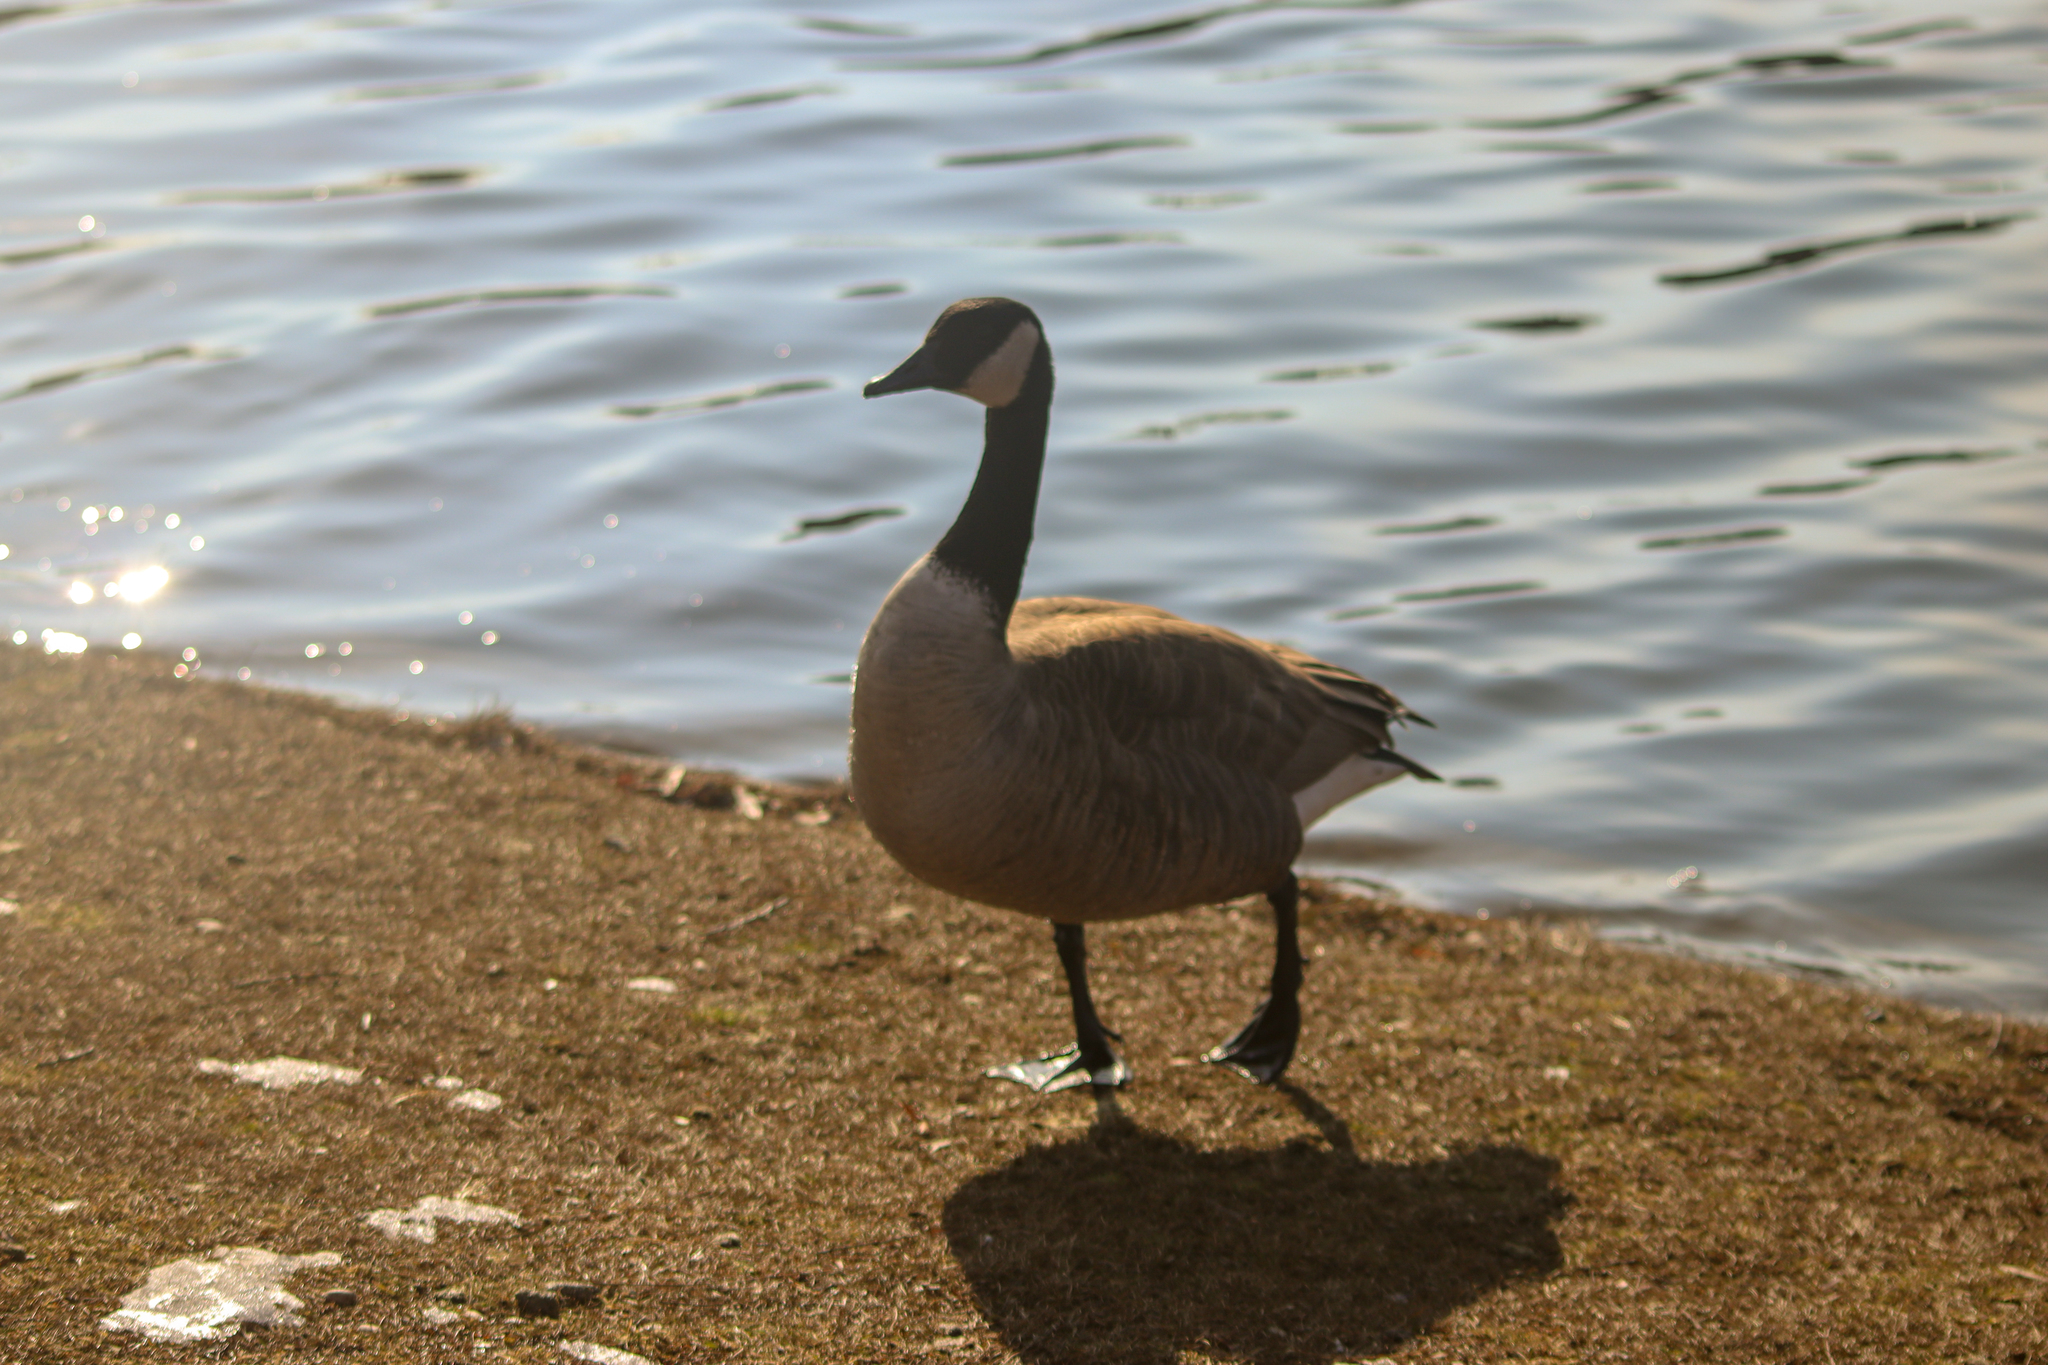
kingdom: Animalia
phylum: Chordata
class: Aves
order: Anseriformes
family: Anatidae
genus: Branta
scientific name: Branta canadensis
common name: Canada goose
